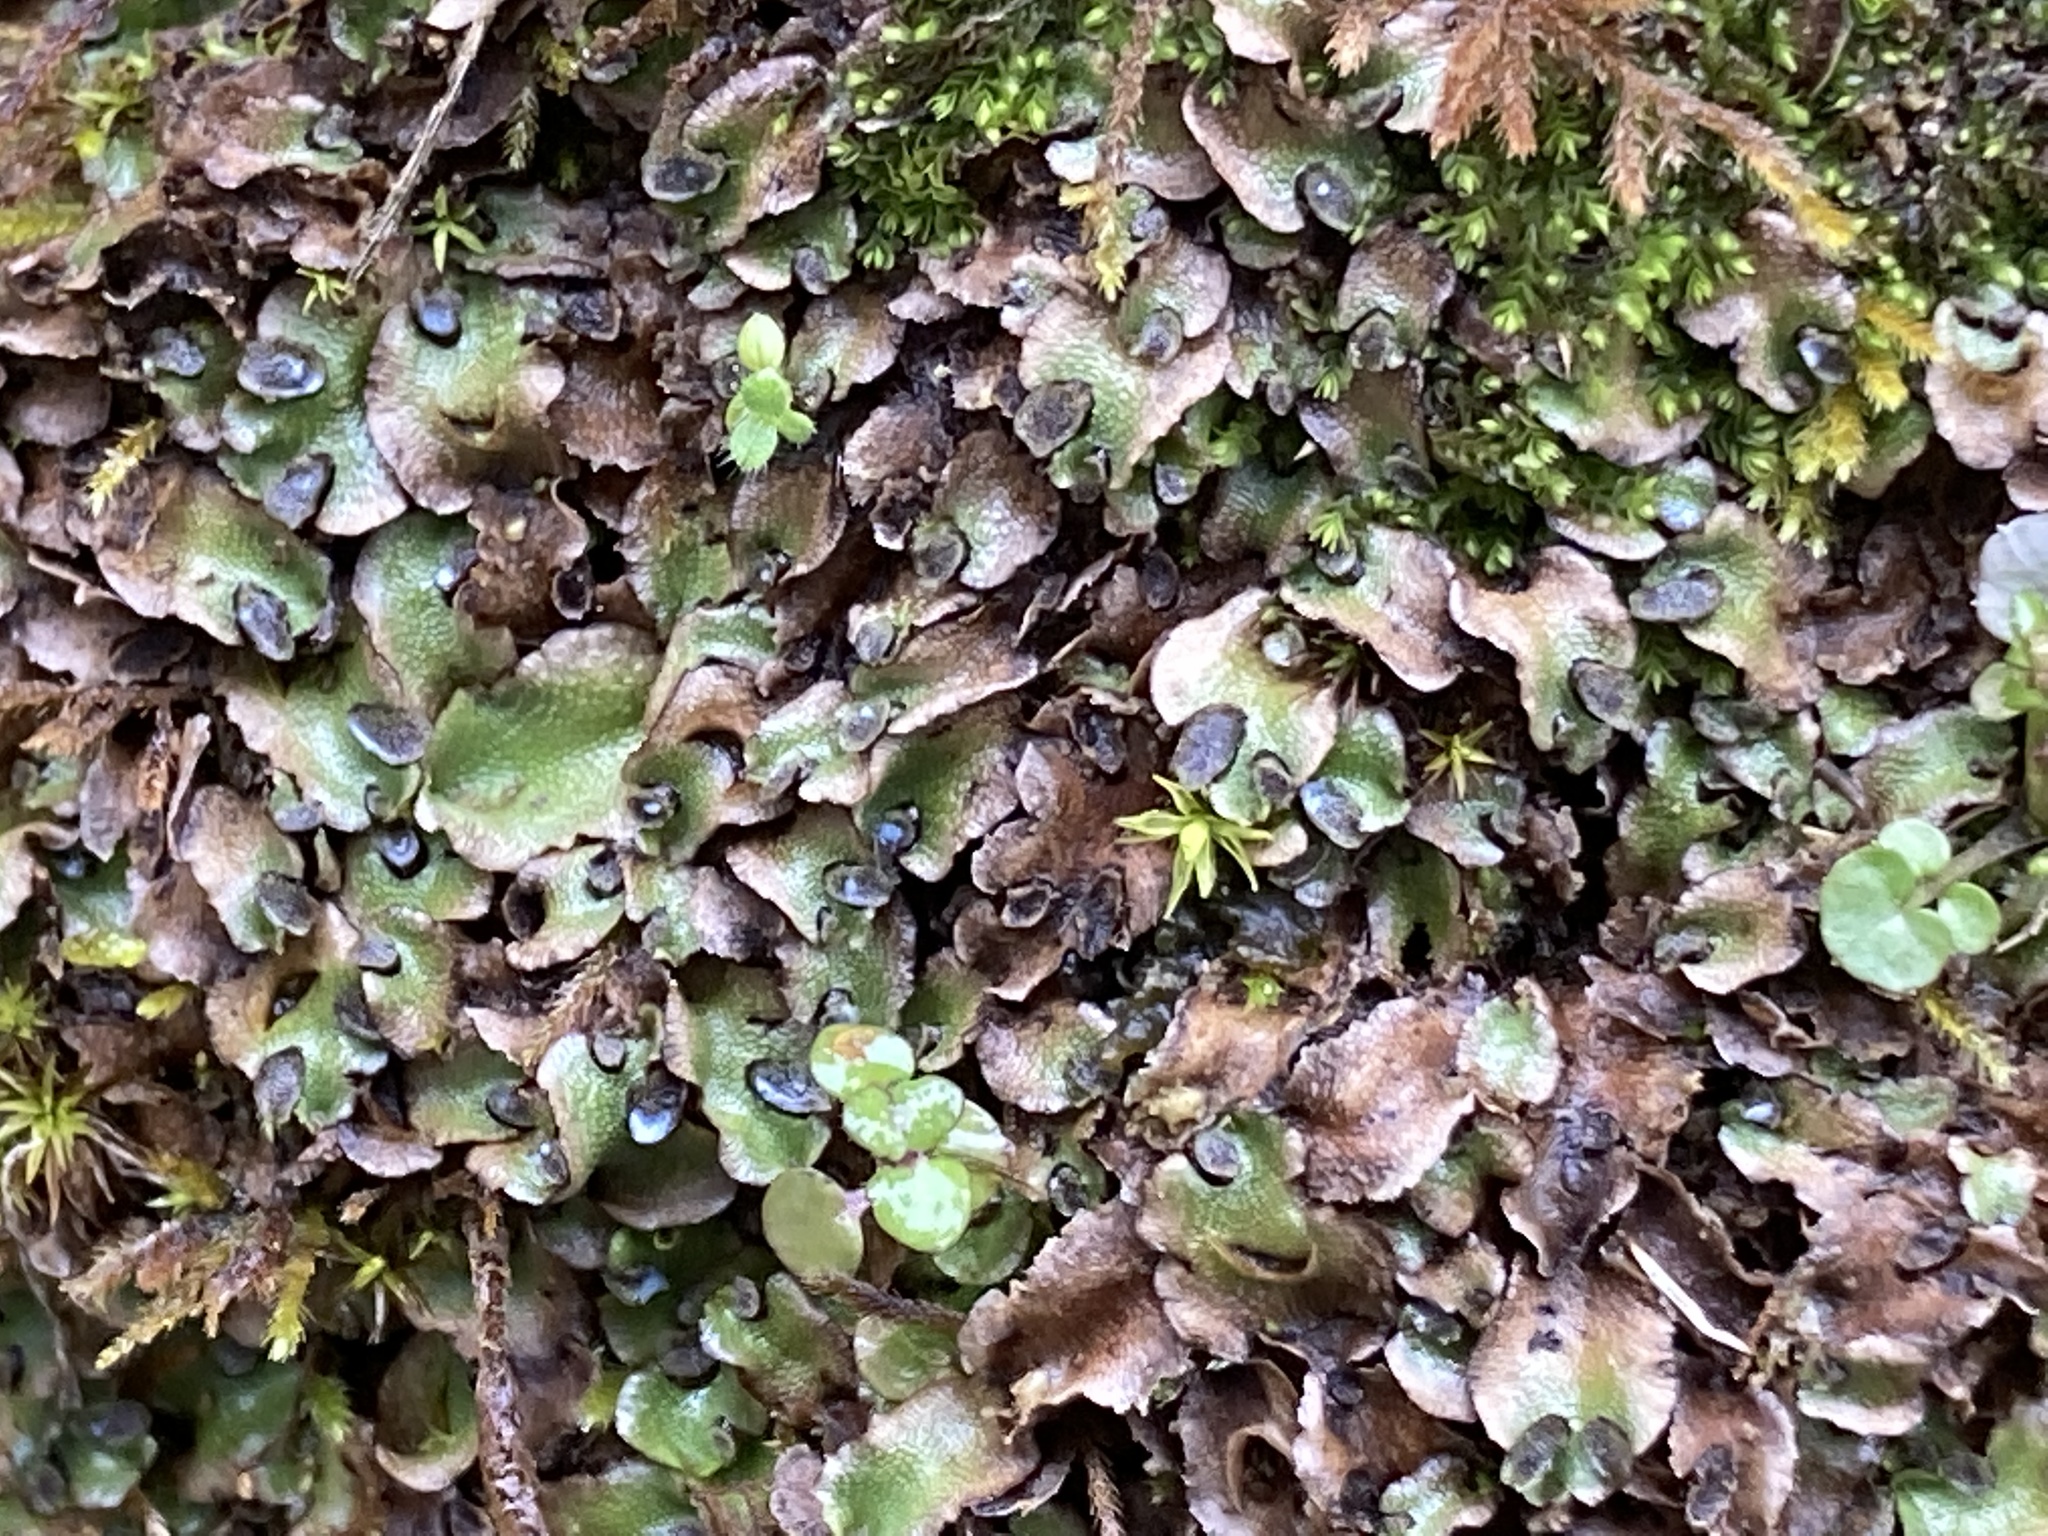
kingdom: Plantae
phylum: Marchantiophyta
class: Marchantiopsida
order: Lunulariales
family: Lunulariaceae
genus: Lunularia
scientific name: Lunularia cruciata
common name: Crescent-cup liverwort
